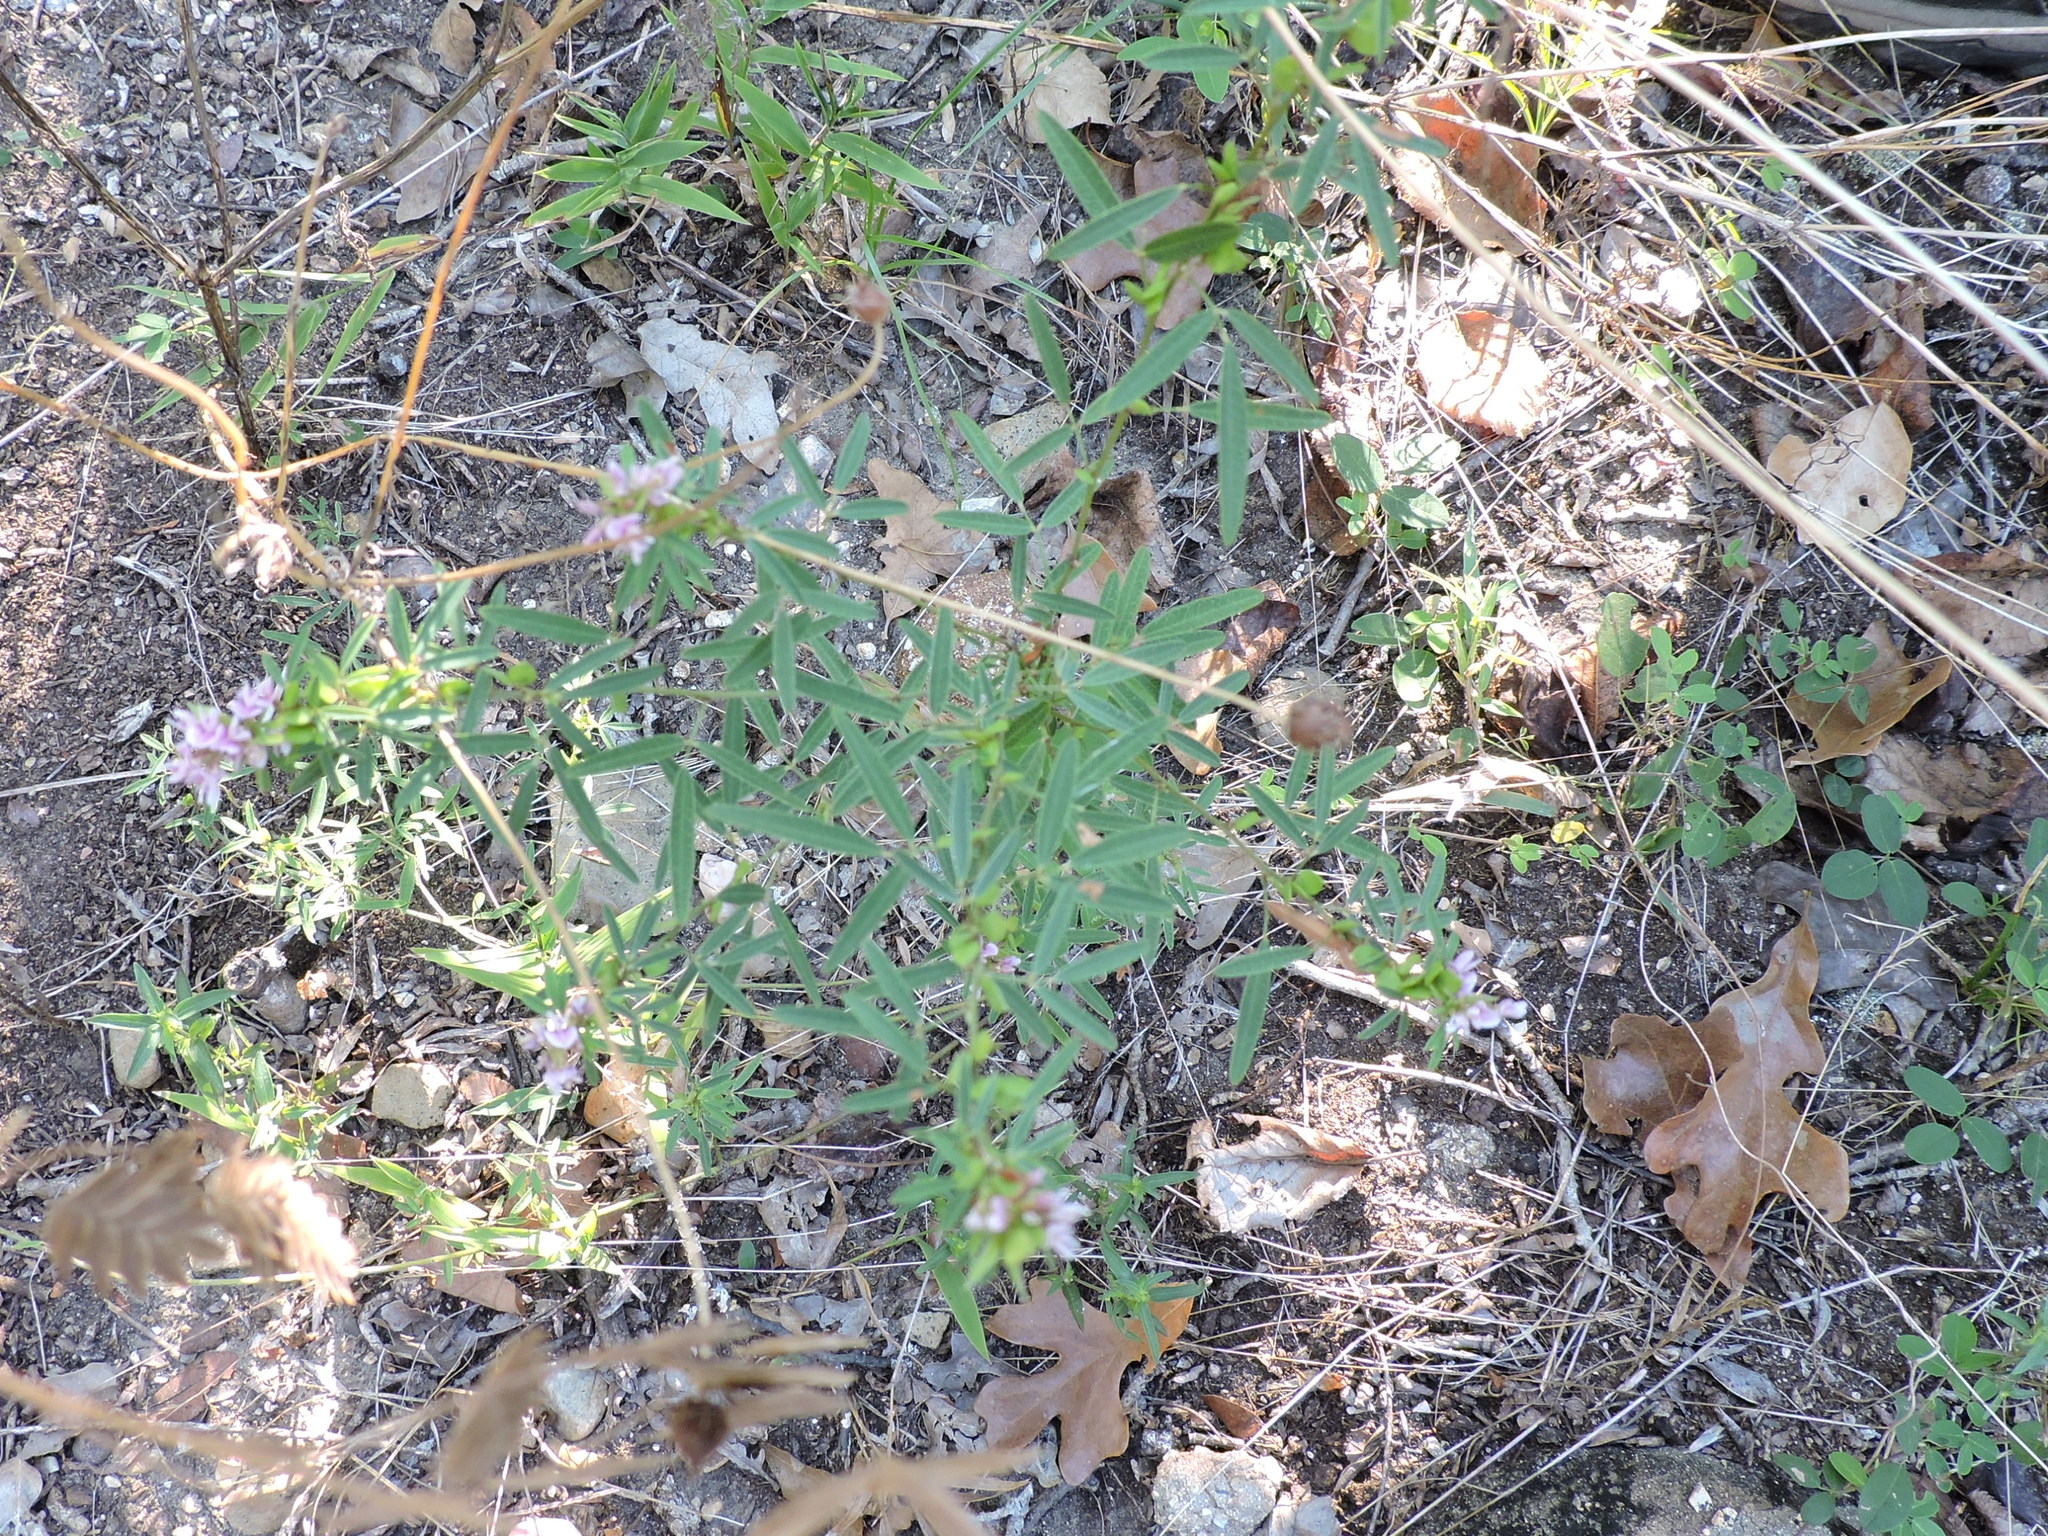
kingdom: Plantae
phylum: Tracheophyta
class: Magnoliopsida
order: Fabales
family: Fabaceae
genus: Lespedeza
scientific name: Lespedeza virginica
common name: Slender bush-clover
